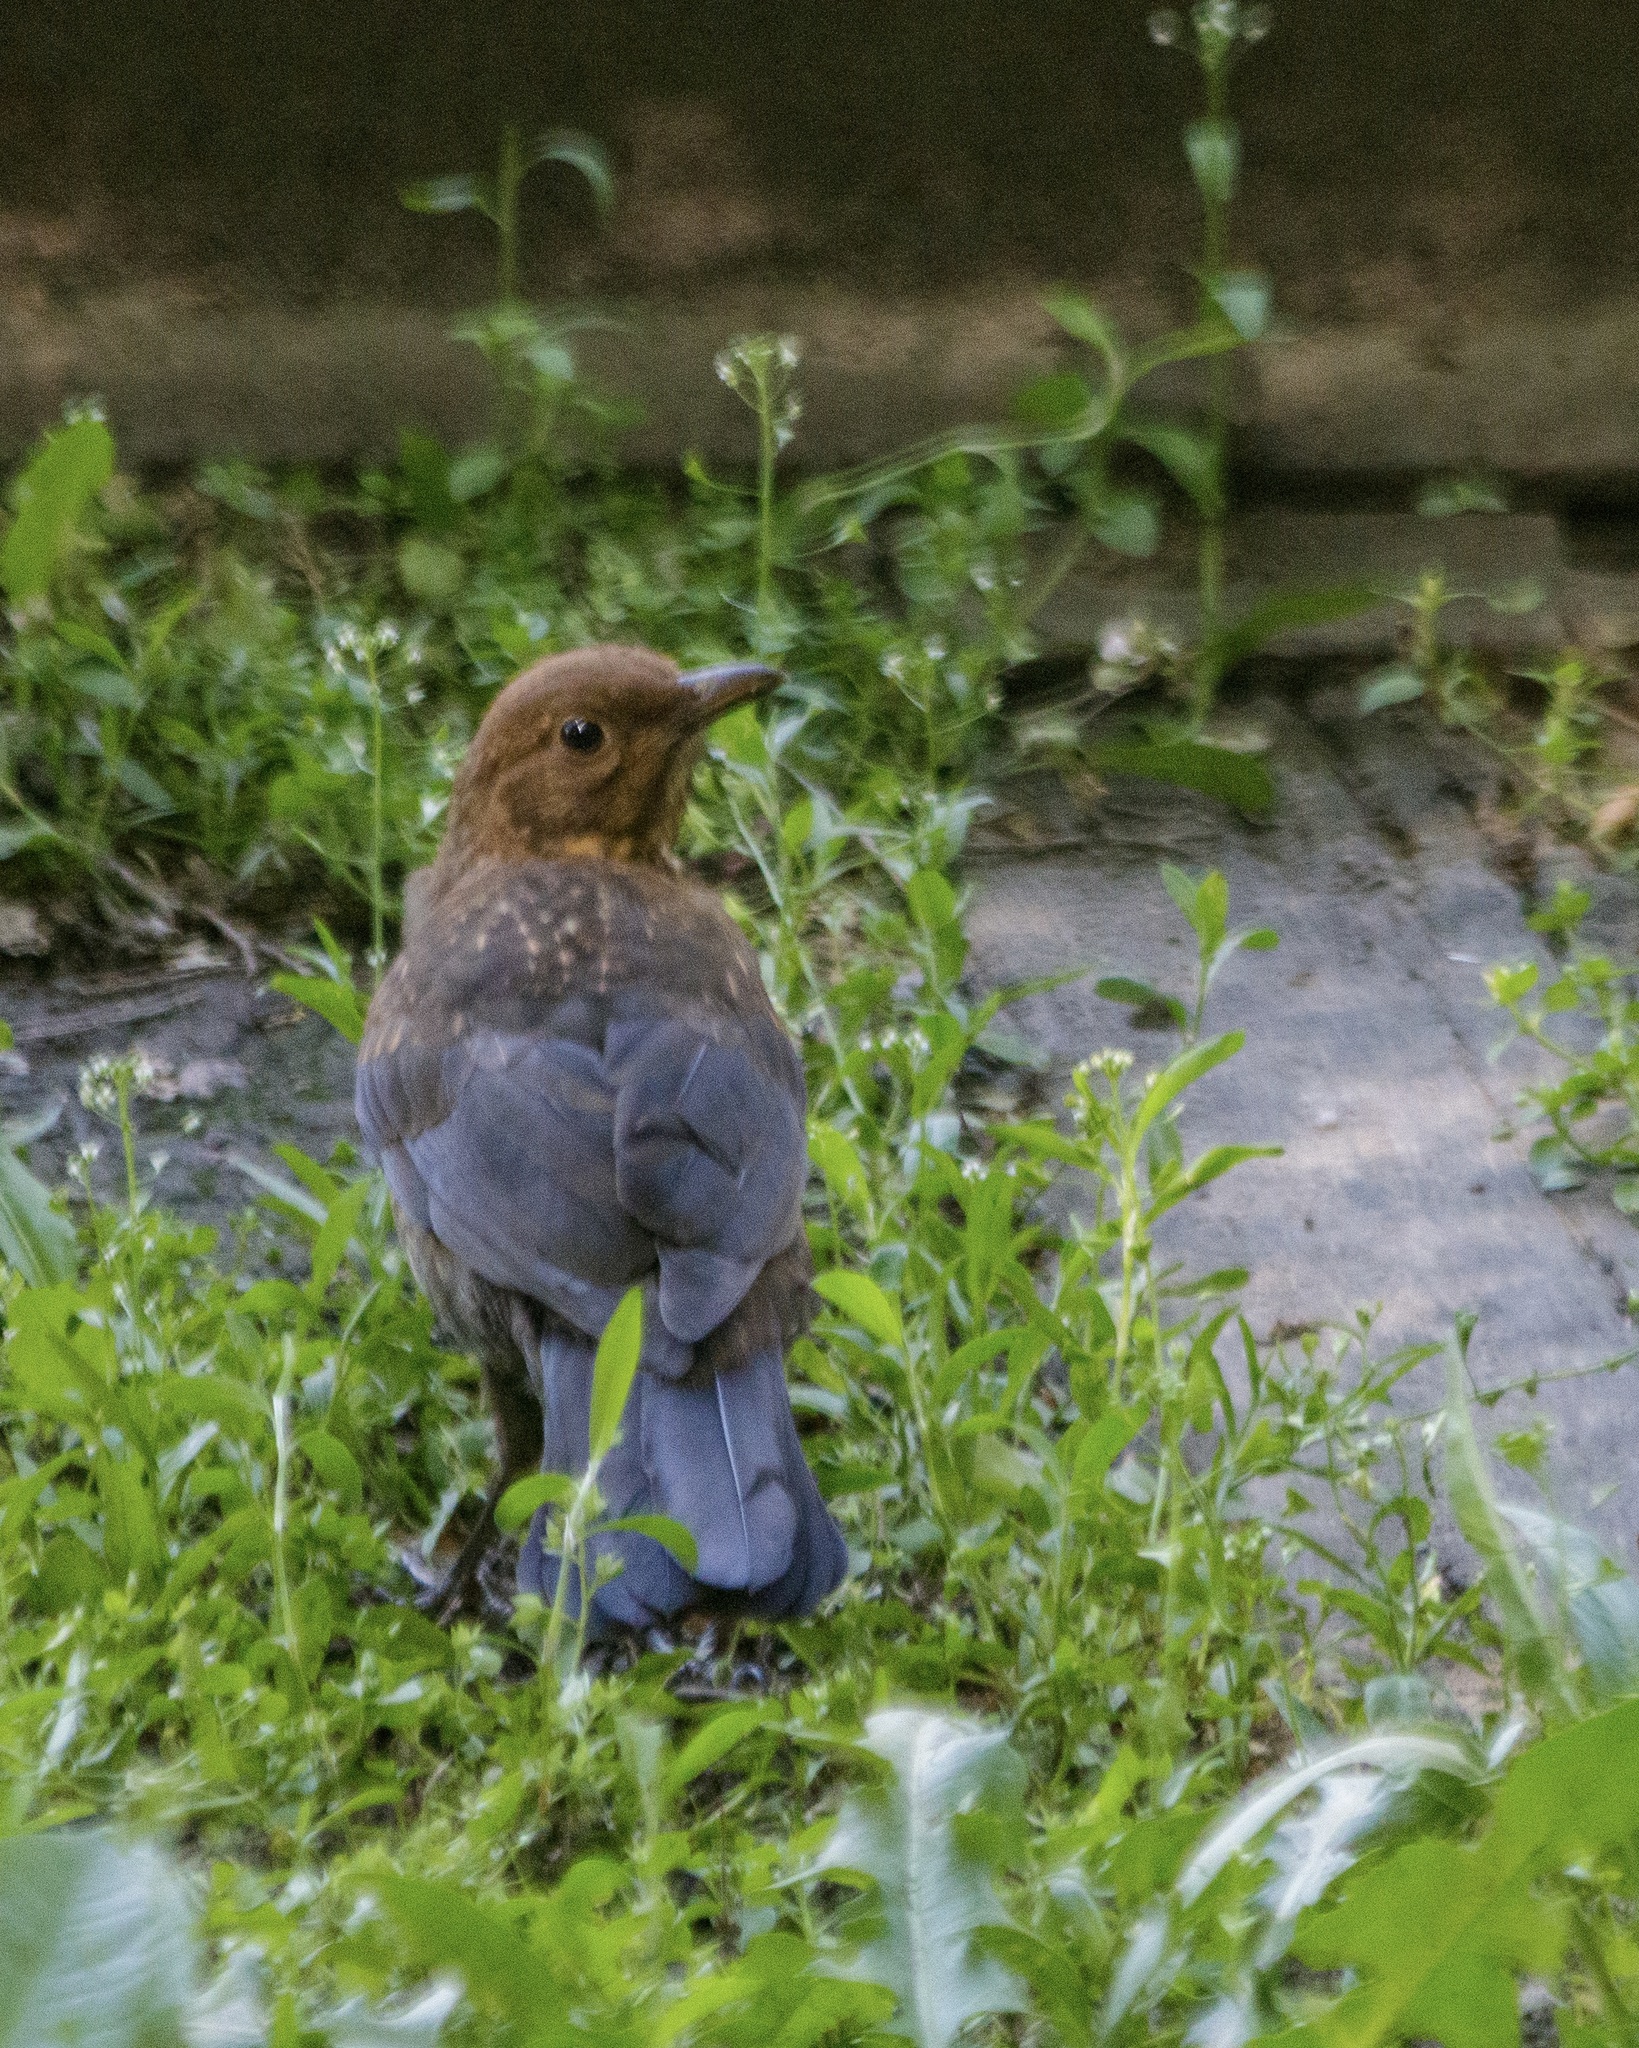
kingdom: Animalia
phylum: Chordata
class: Aves
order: Passeriformes
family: Turdidae
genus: Turdus
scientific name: Turdus merula
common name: Common blackbird
